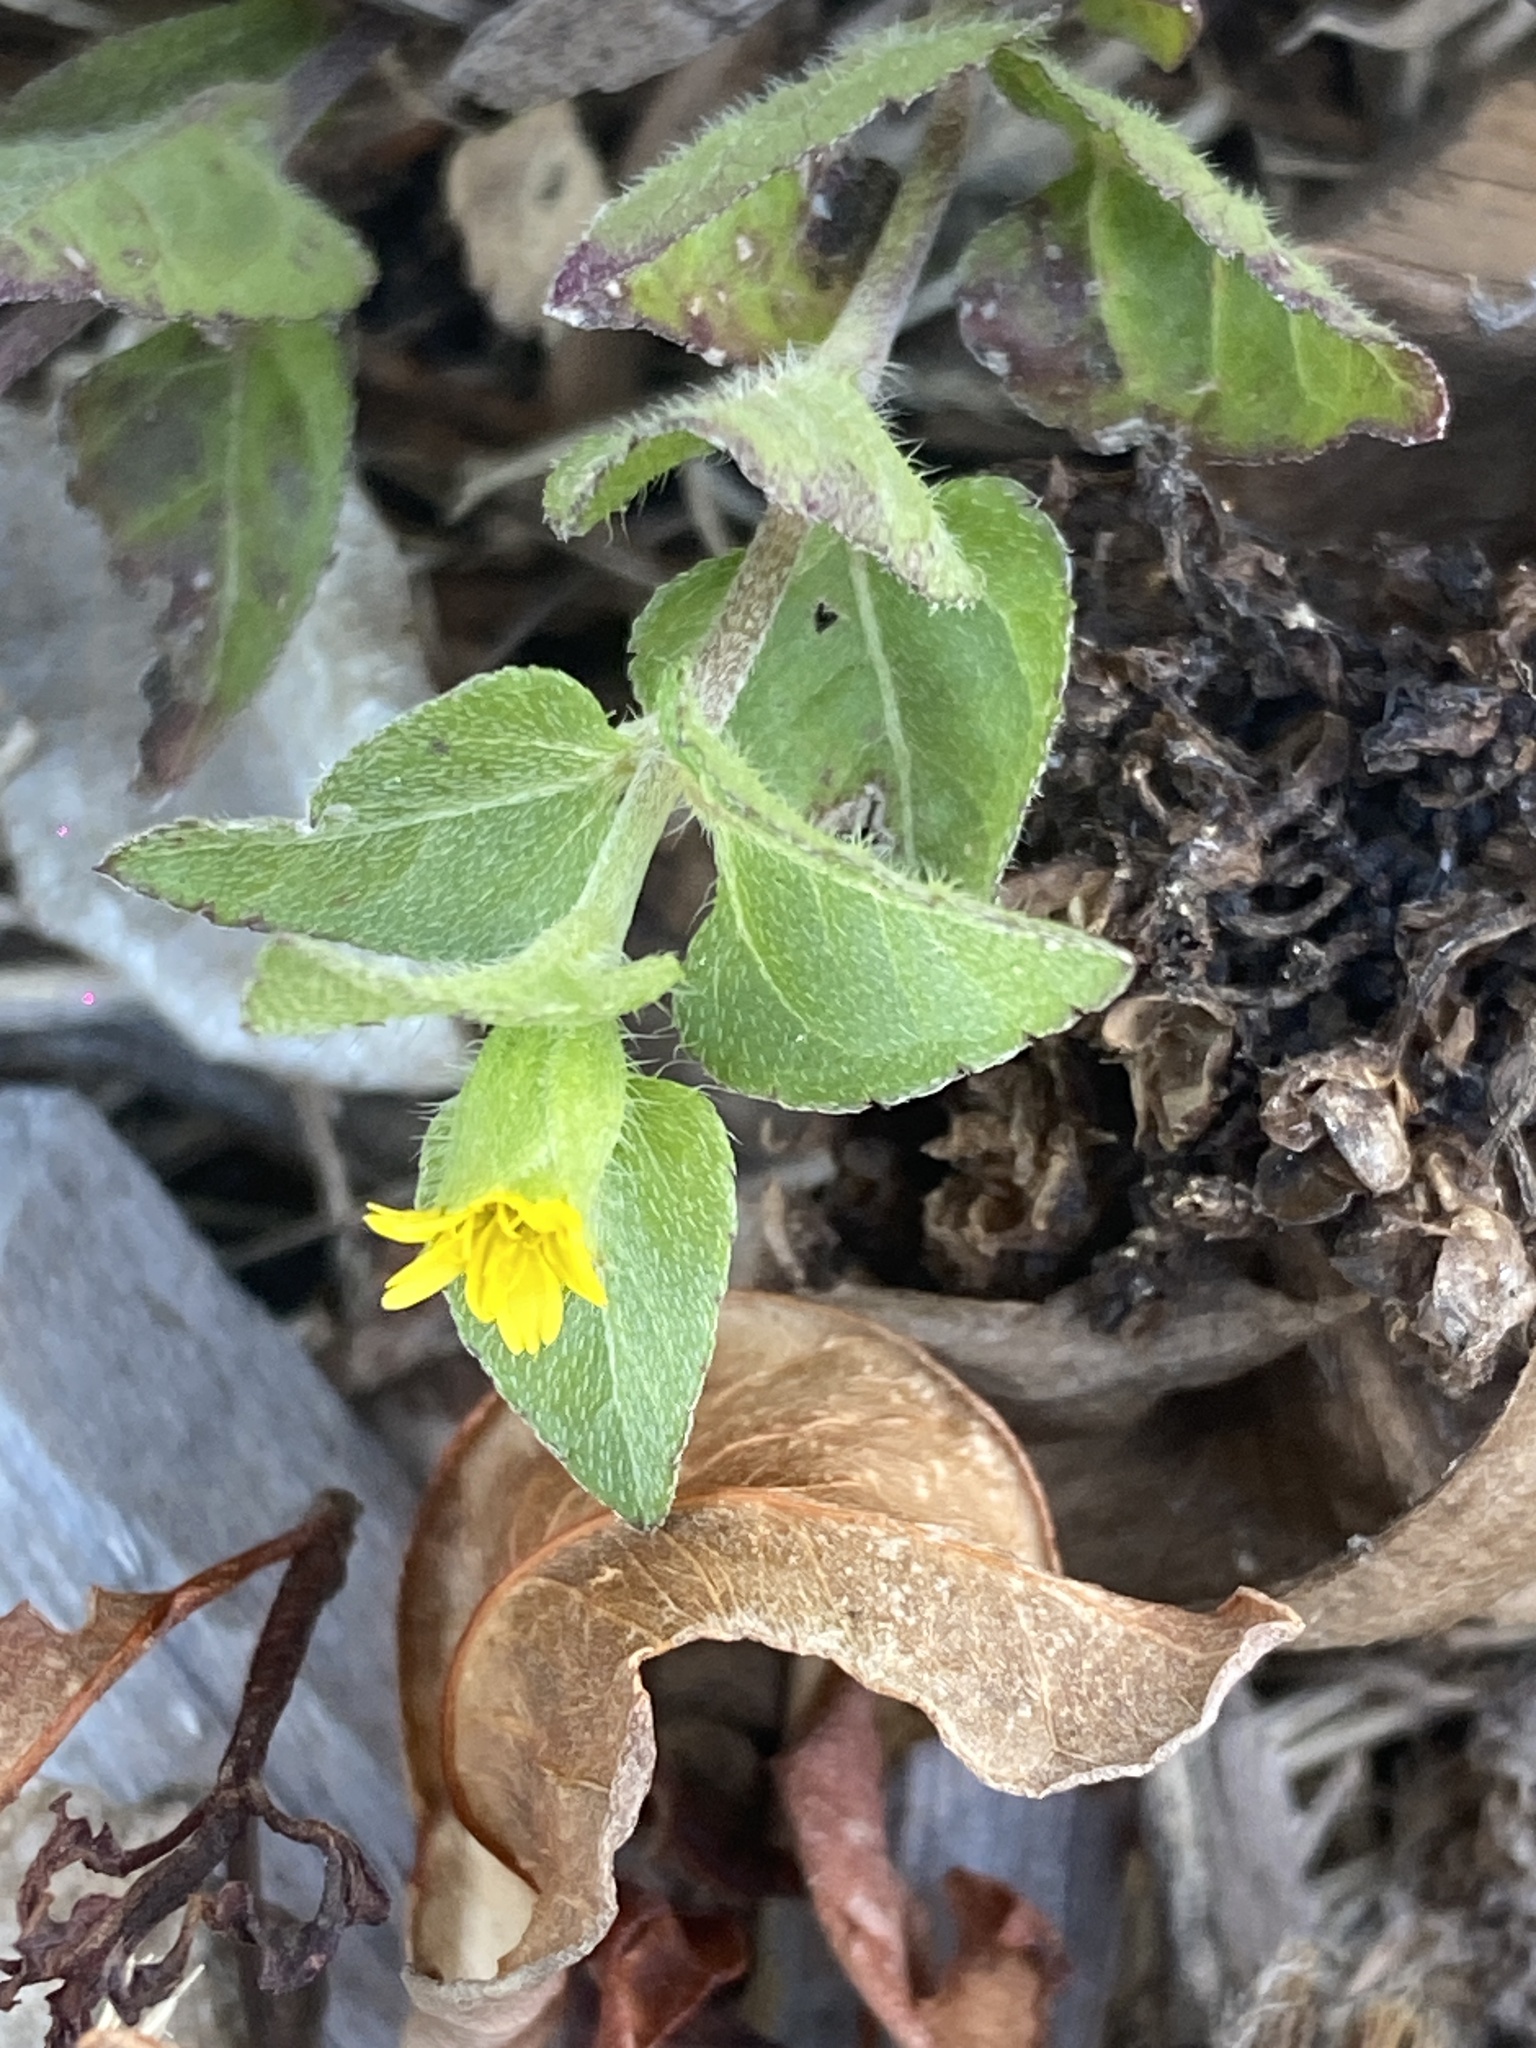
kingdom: Plantae
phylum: Tracheophyta
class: Magnoliopsida
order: Asterales
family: Asteraceae
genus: Calyptocarpus
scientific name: Calyptocarpus vialis
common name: Straggler daisy
